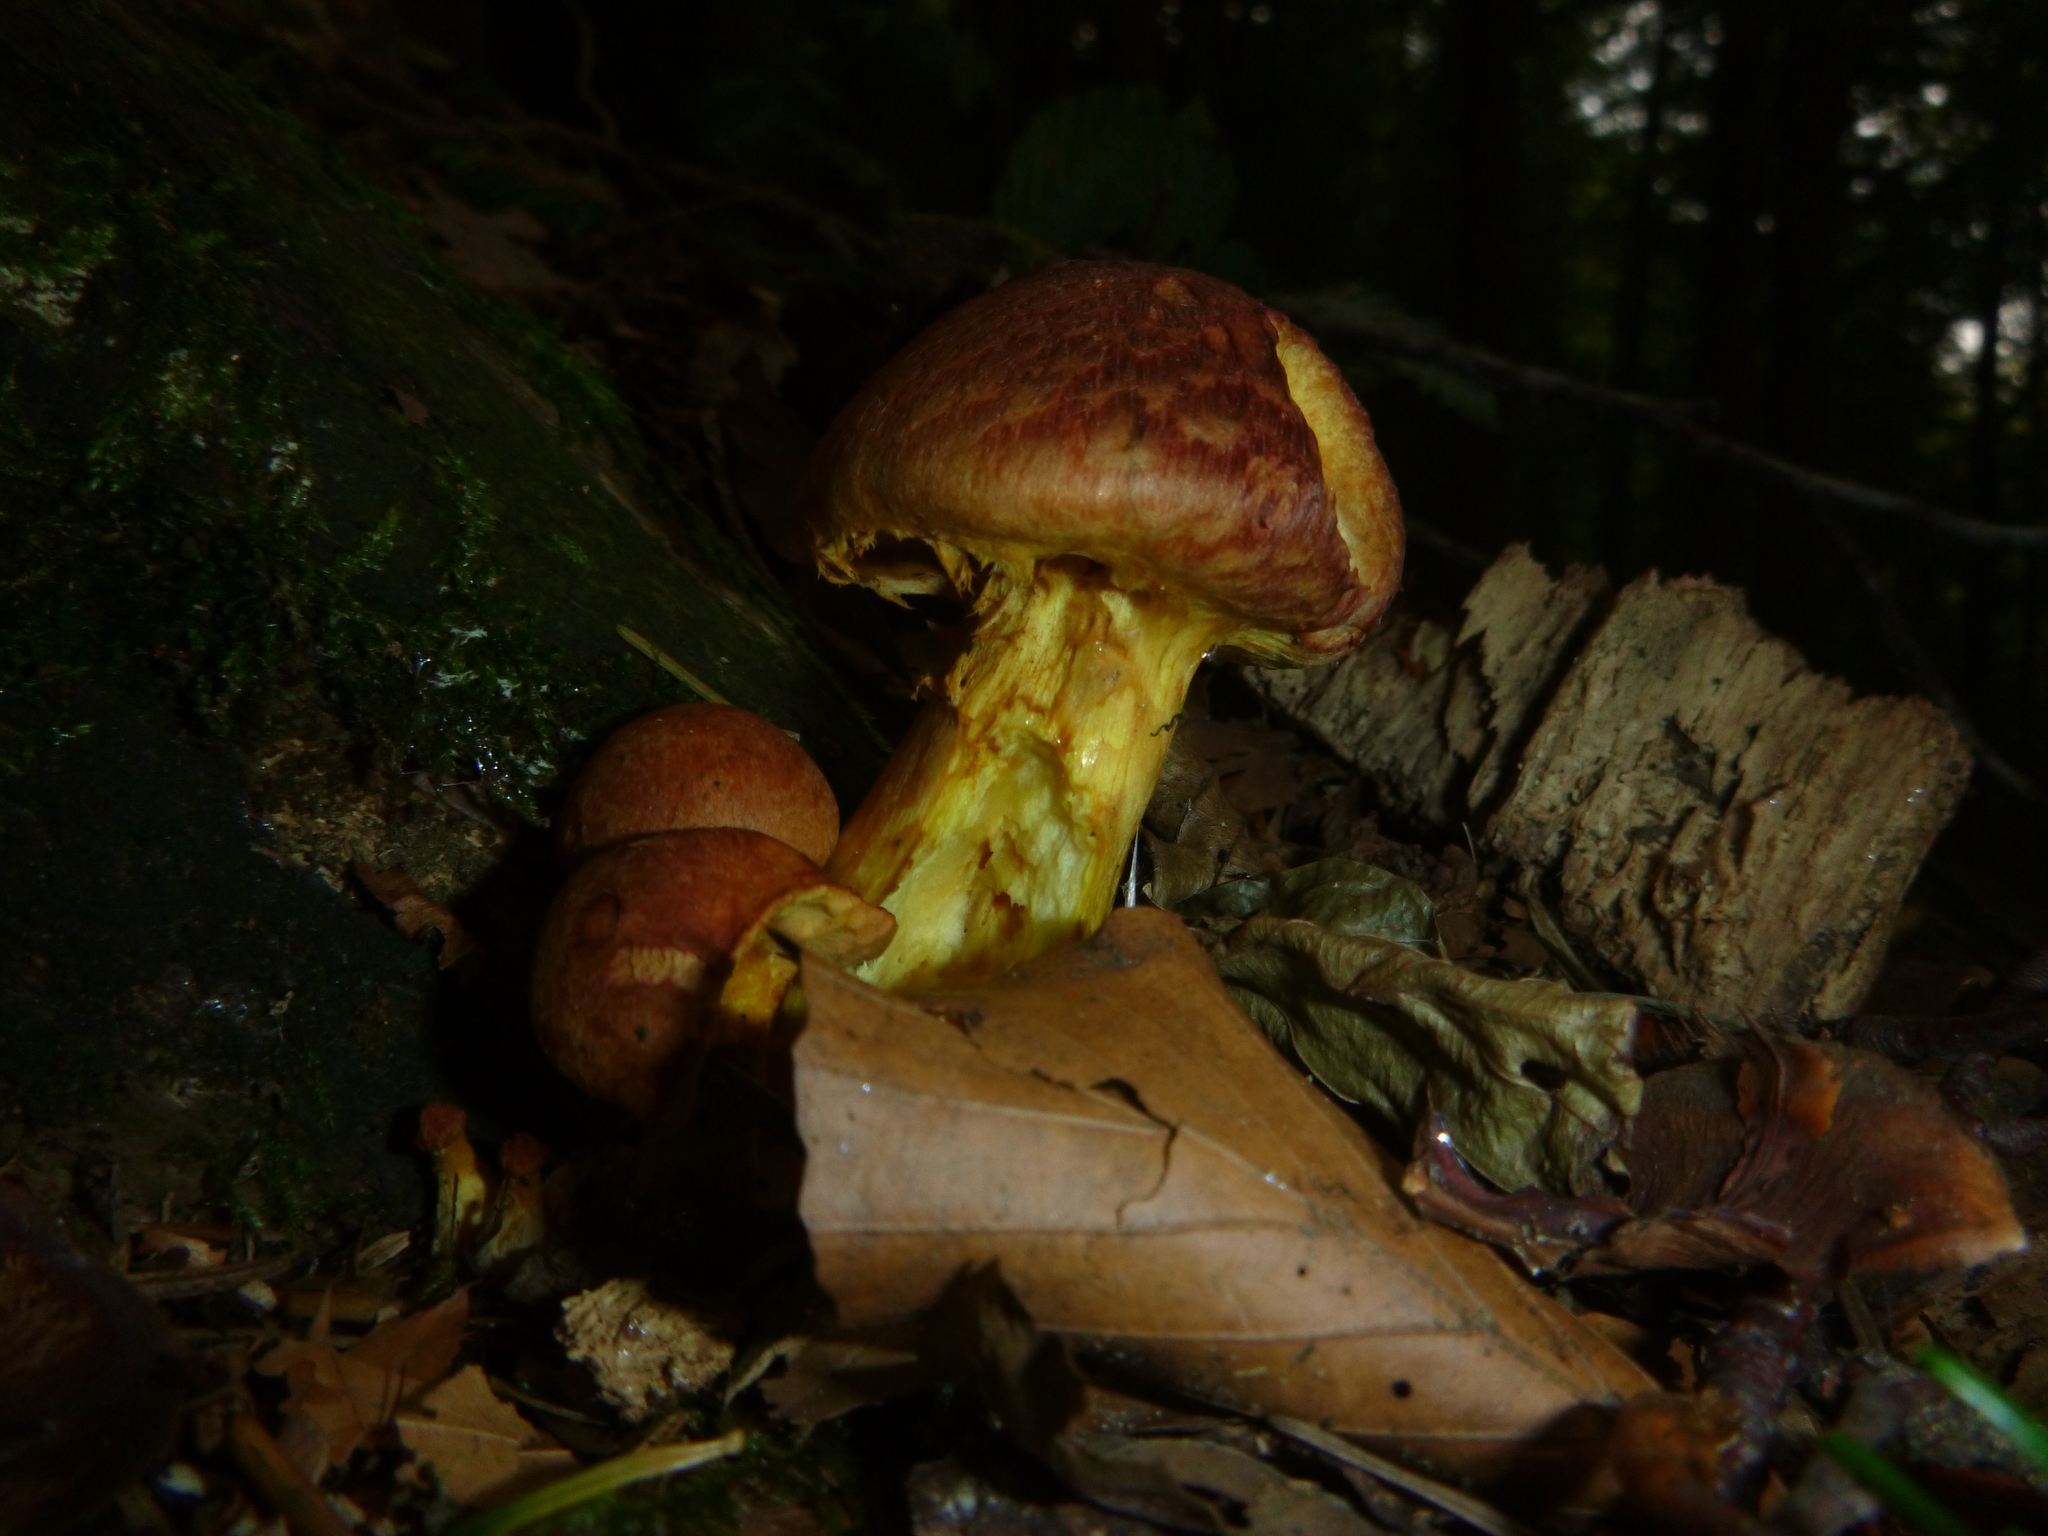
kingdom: Fungi
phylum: Basidiomycota
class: Agaricomycetes
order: Agaricales
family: Hymenogastraceae
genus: Gymnopilus
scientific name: Gymnopilus junonius
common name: Spectacular rustgill
